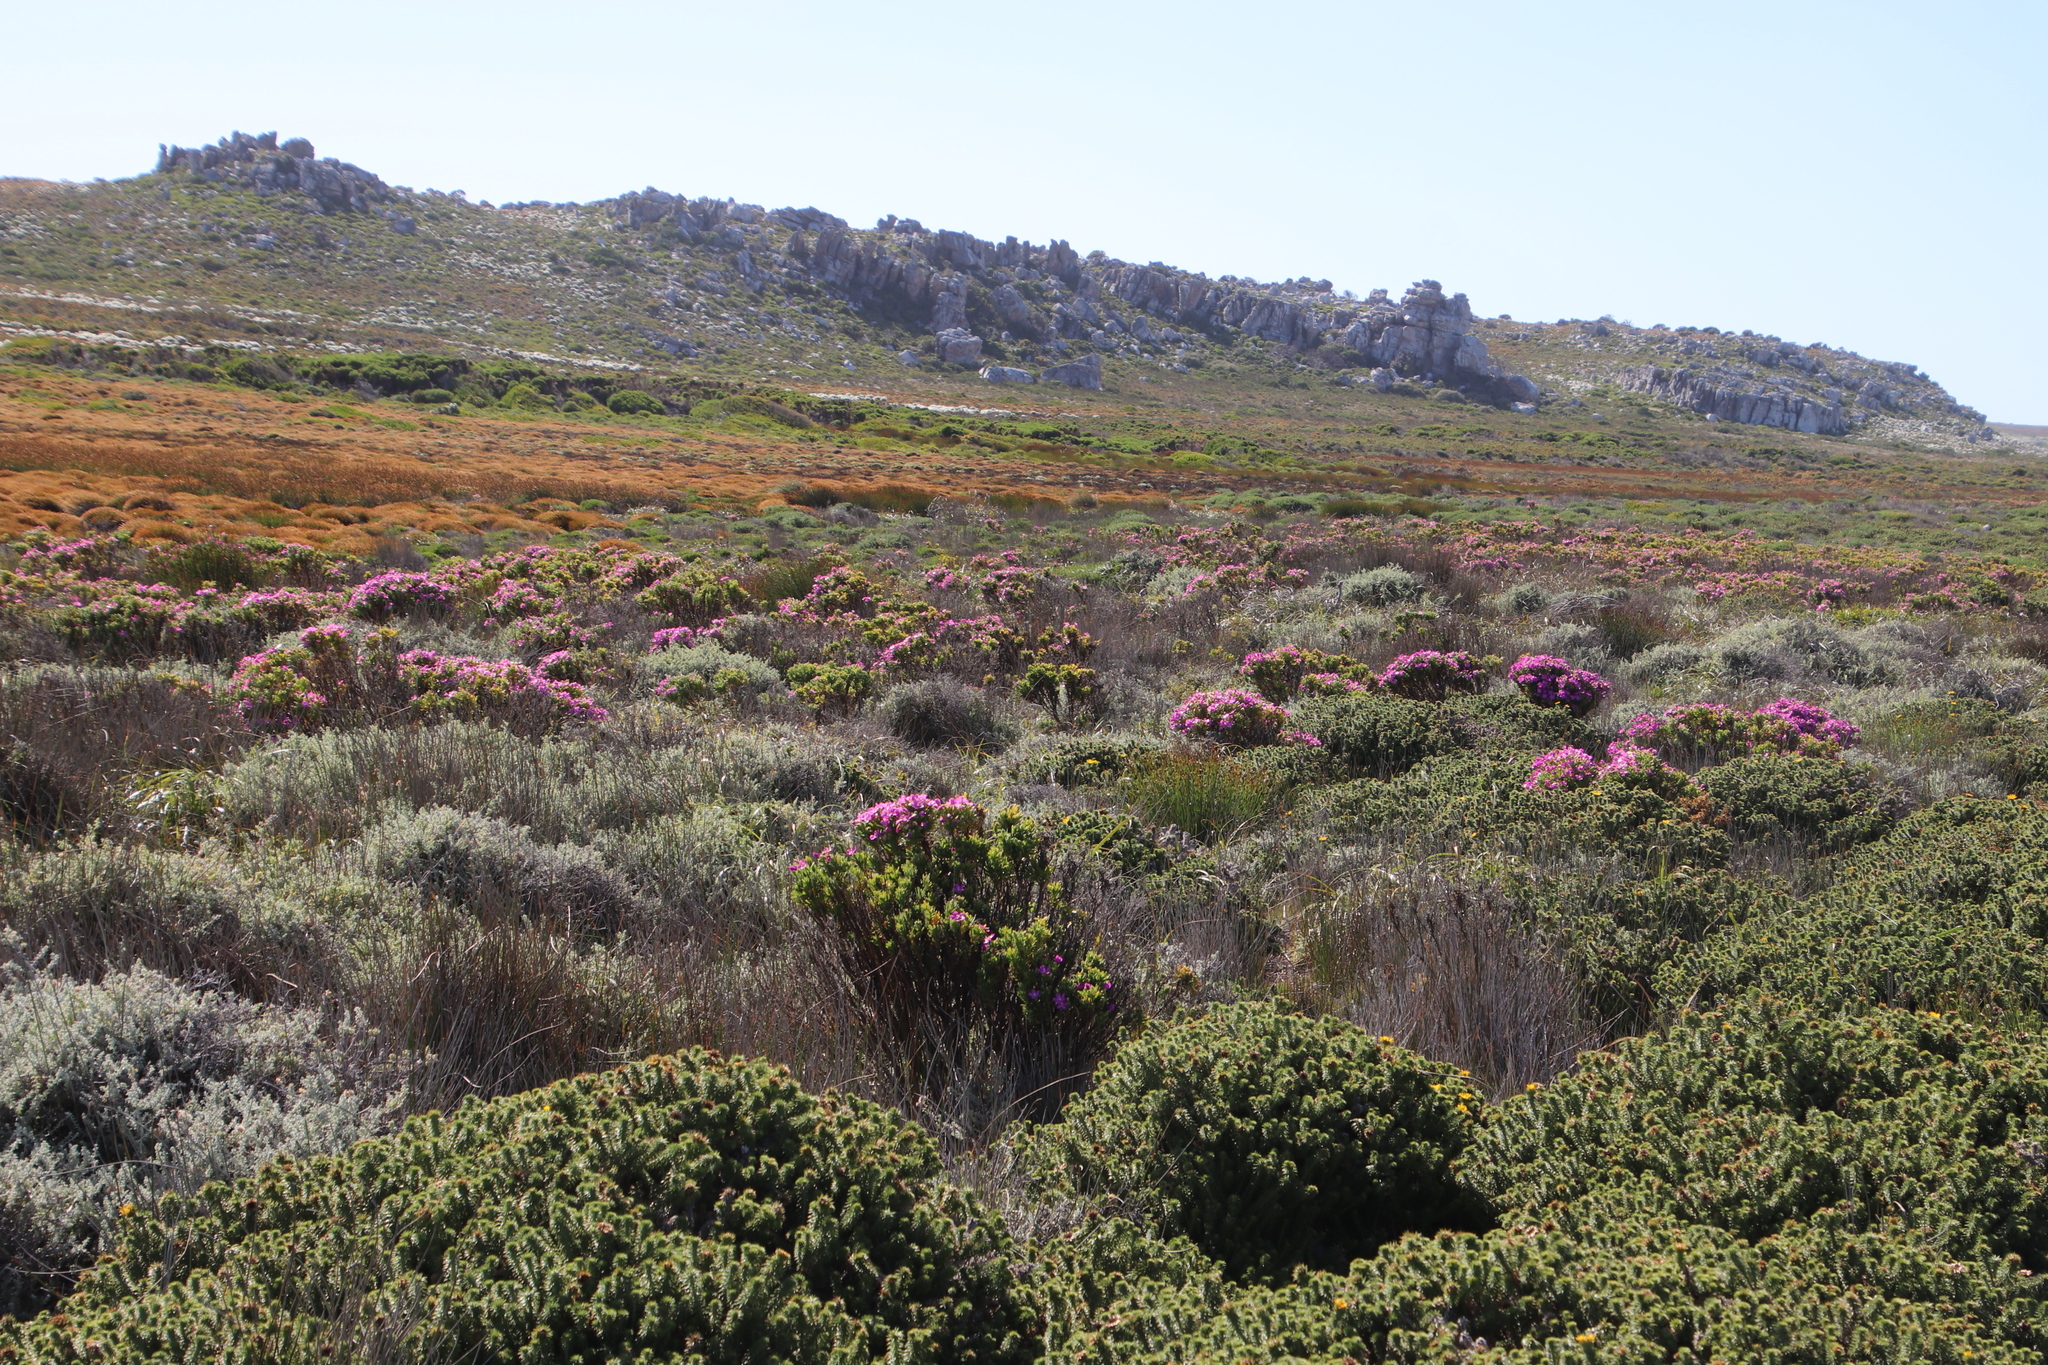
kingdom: Plantae
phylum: Tracheophyta
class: Magnoliopsida
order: Gentianales
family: Gentianaceae
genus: Orphium
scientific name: Orphium frutescens
